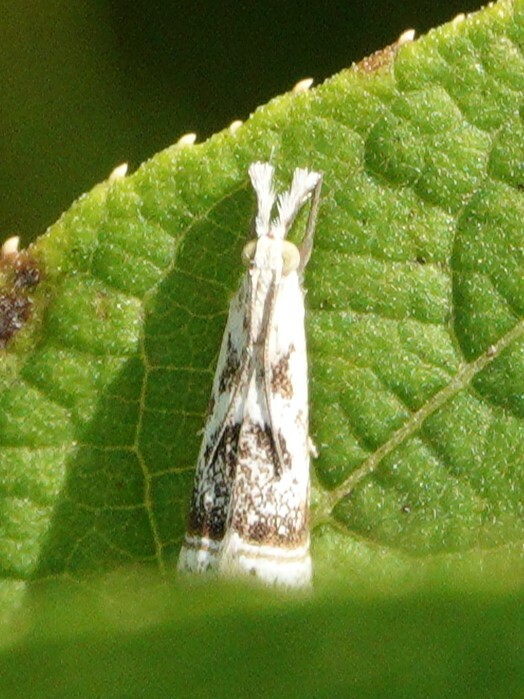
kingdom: Animalia
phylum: Arthropoda
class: Insecta
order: Lepidoptera
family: Crambidae
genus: Microcrambus
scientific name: Microcrambus elegans
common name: Elegant grass-veneer
